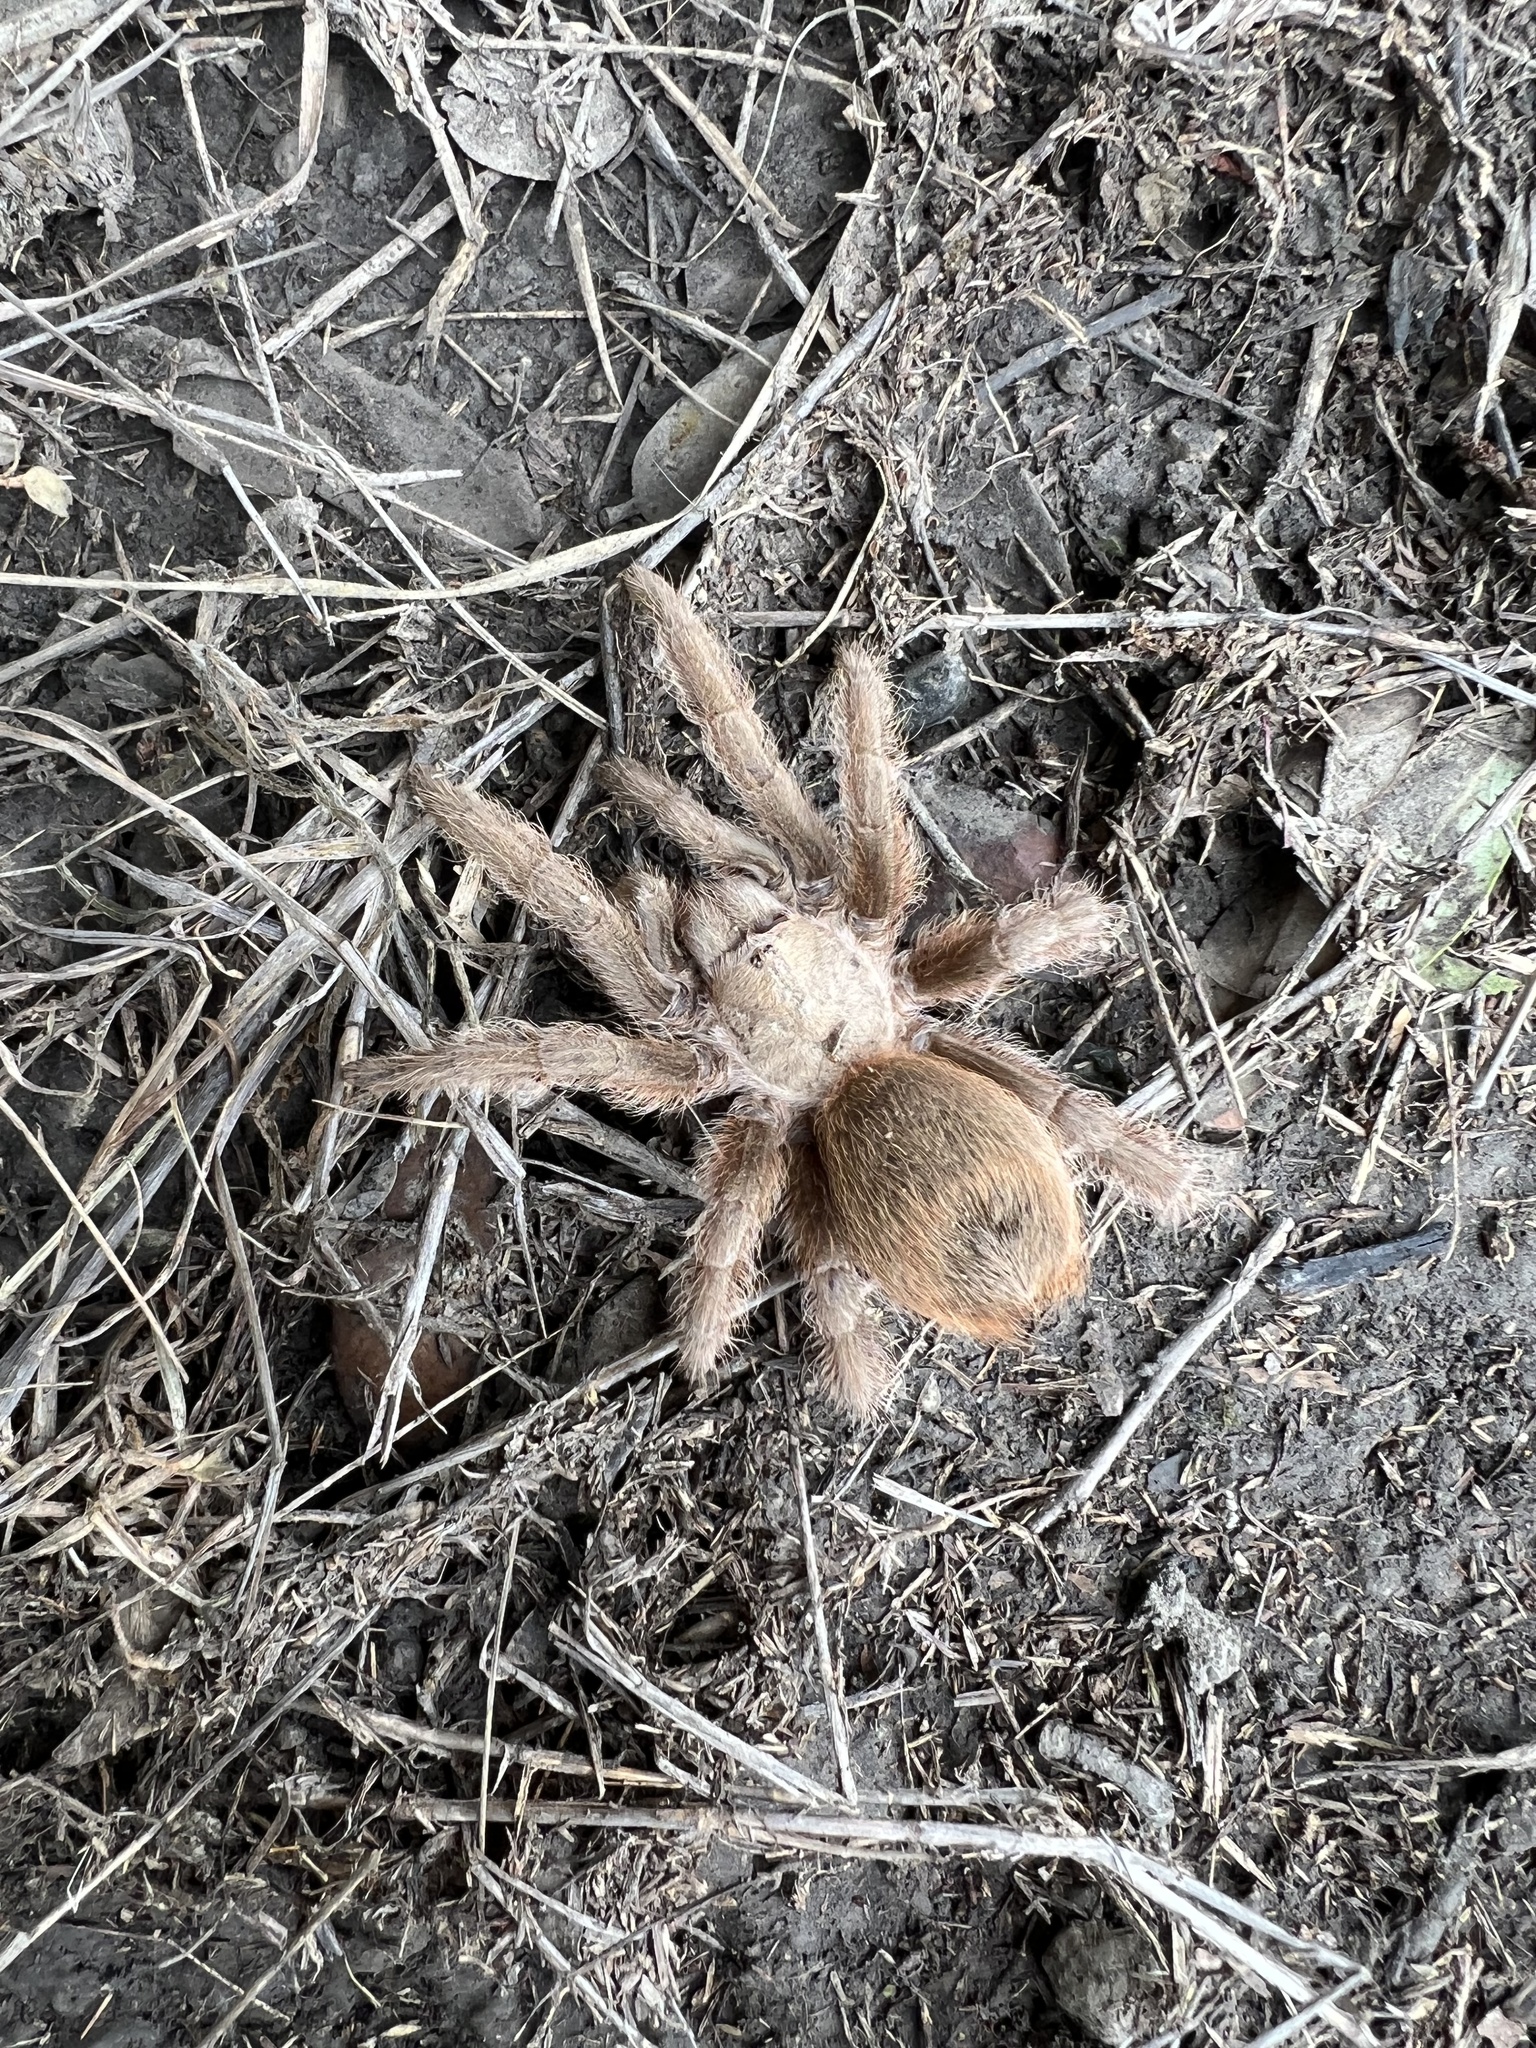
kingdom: Animalia
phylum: Arthropoda
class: Arachnida
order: Araneae
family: Theraphosidae
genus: Aphonopelma
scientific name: Aphonopelma hentzi
